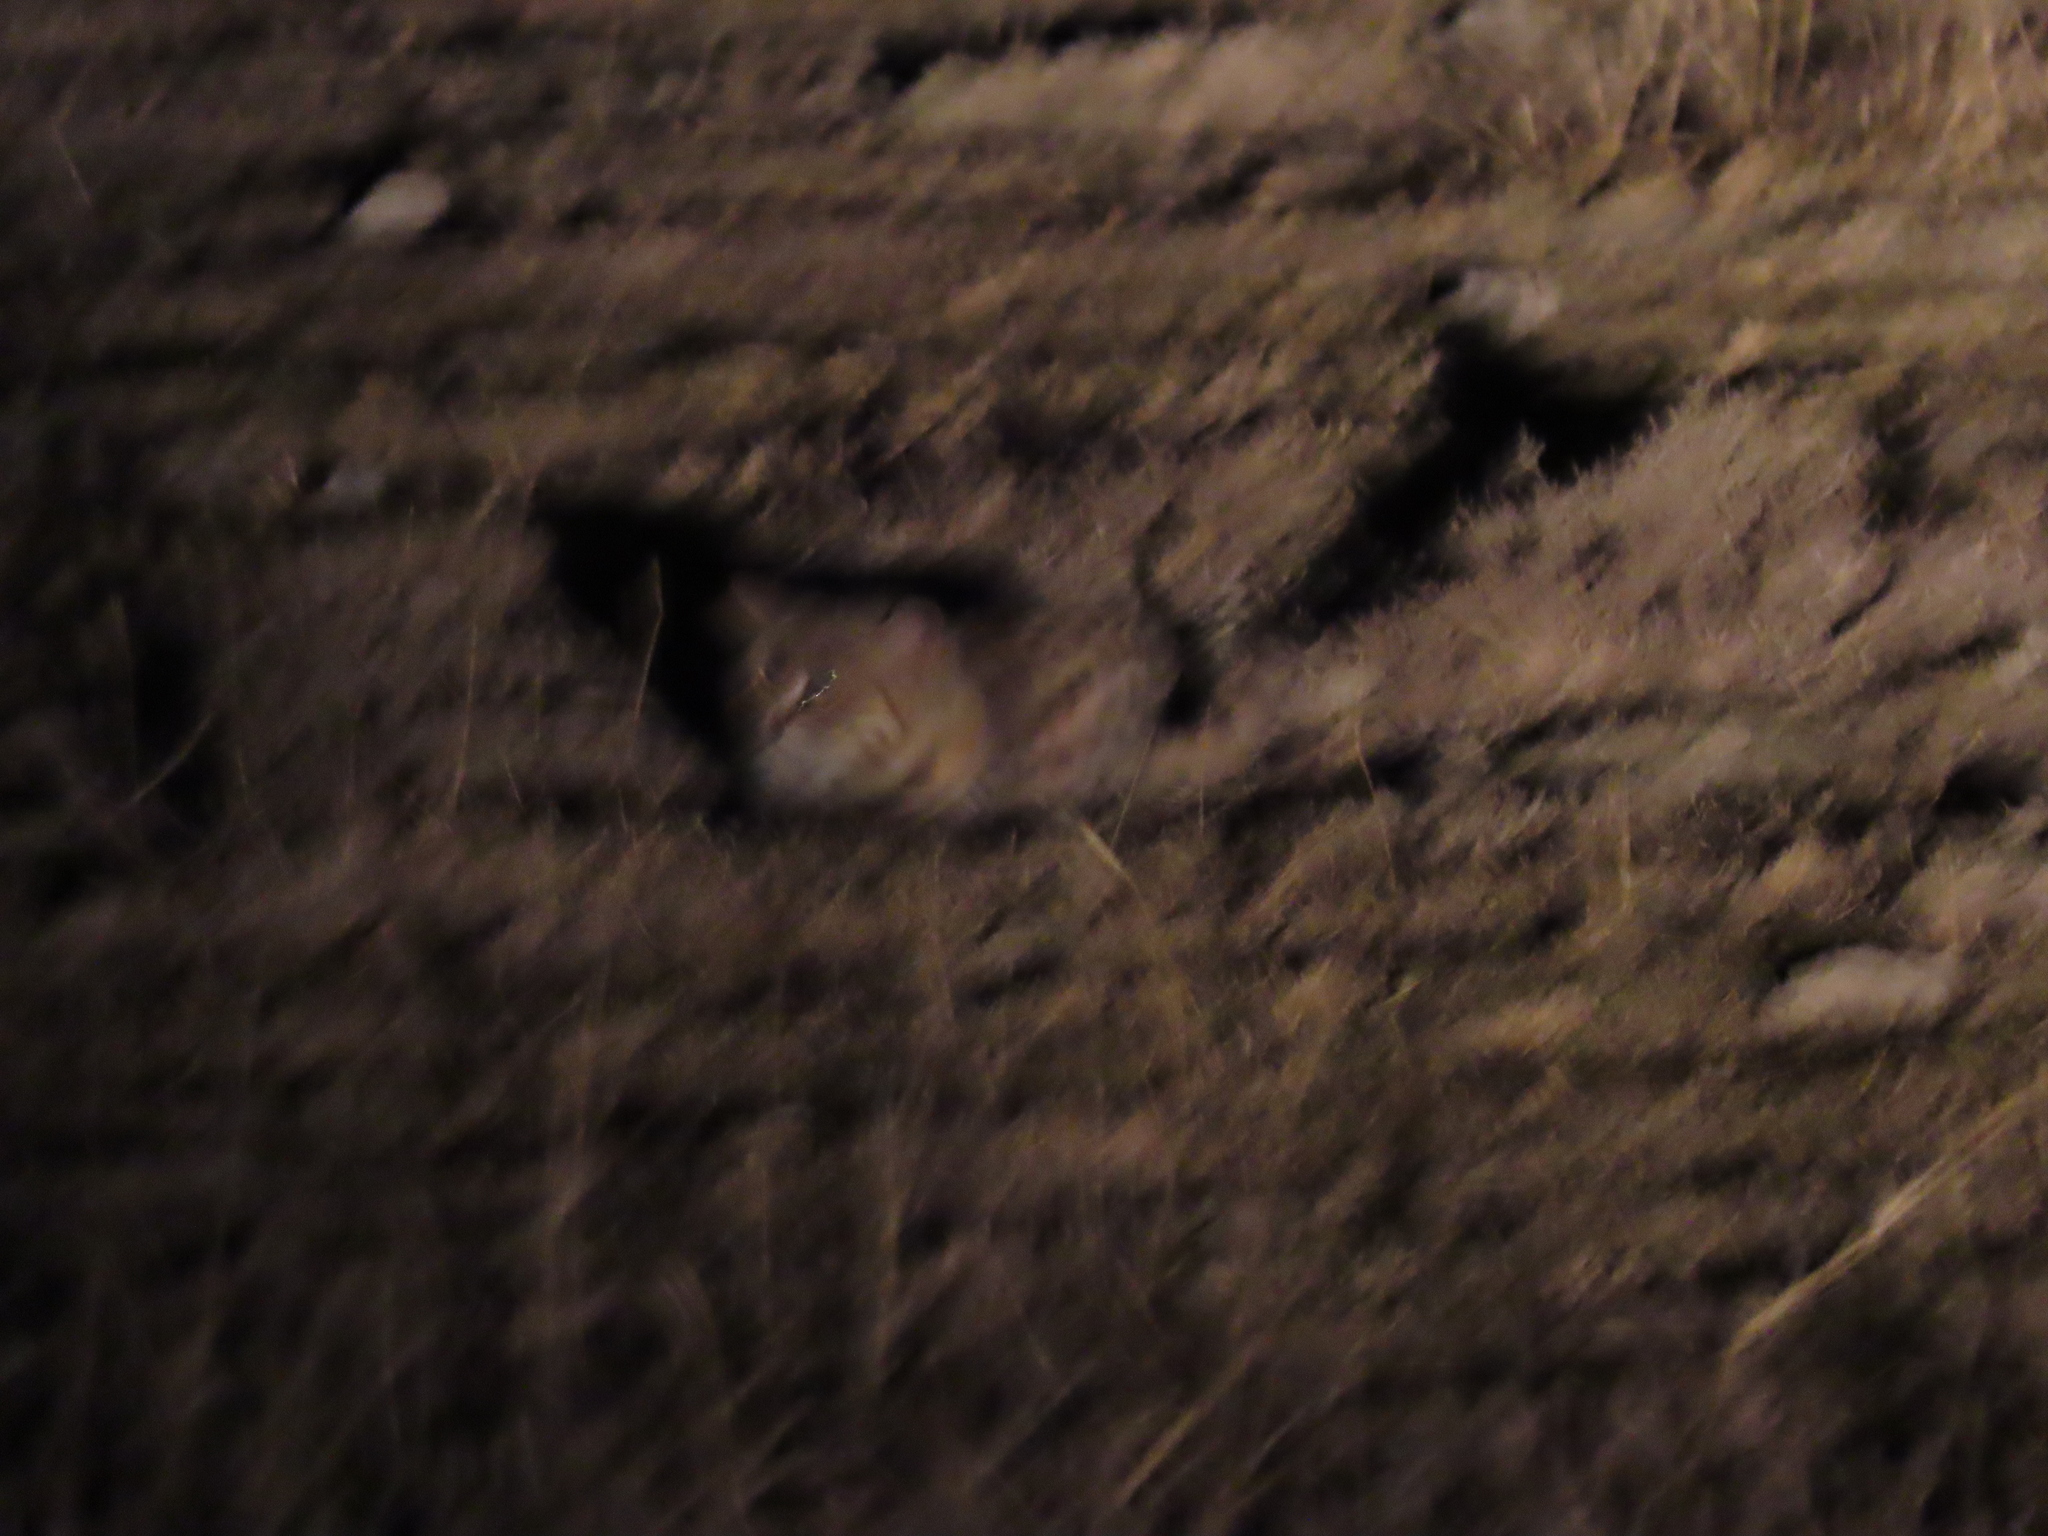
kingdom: Animalia
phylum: Chordata
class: Mammalia
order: Carnivora
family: Felidae
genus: Felis
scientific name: Felis nigripes
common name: Black-footed cat
